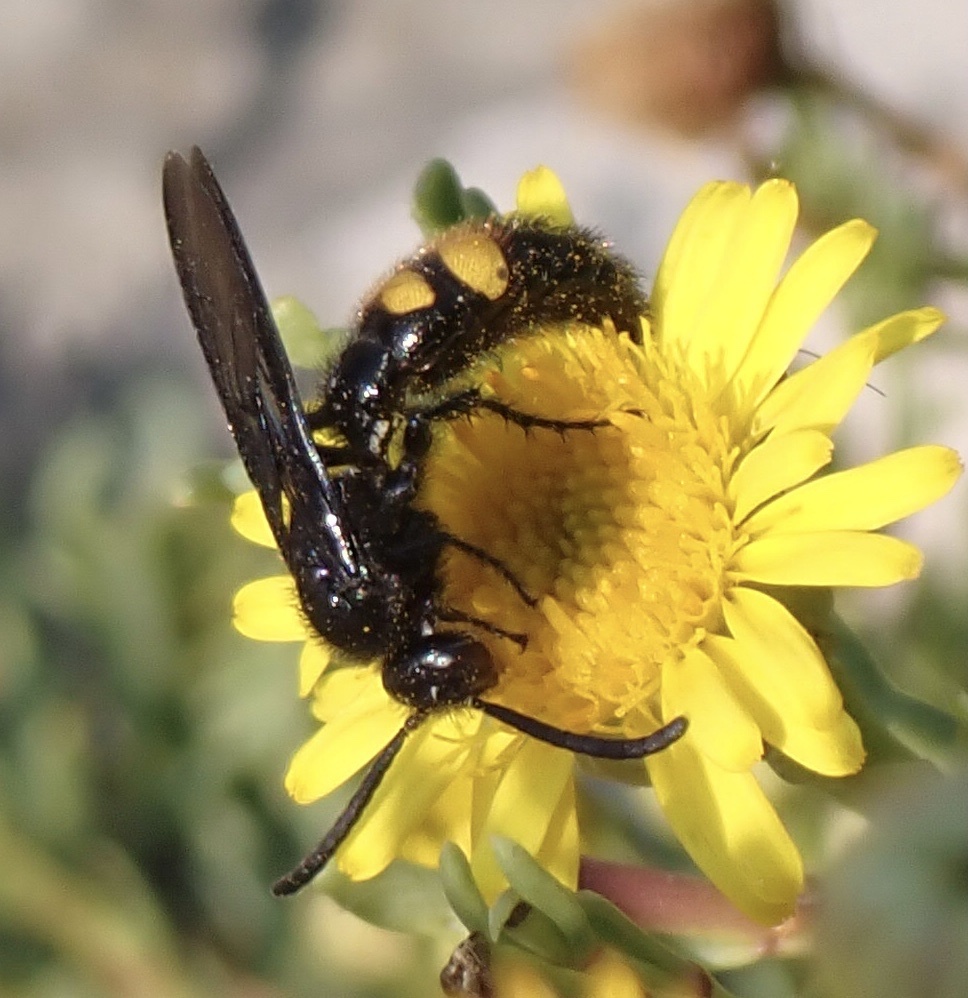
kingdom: Animalia
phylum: Arthropoda
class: Insecta
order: Hymenoptera
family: Scoliidae
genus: Scolia
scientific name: Scolia hirta
